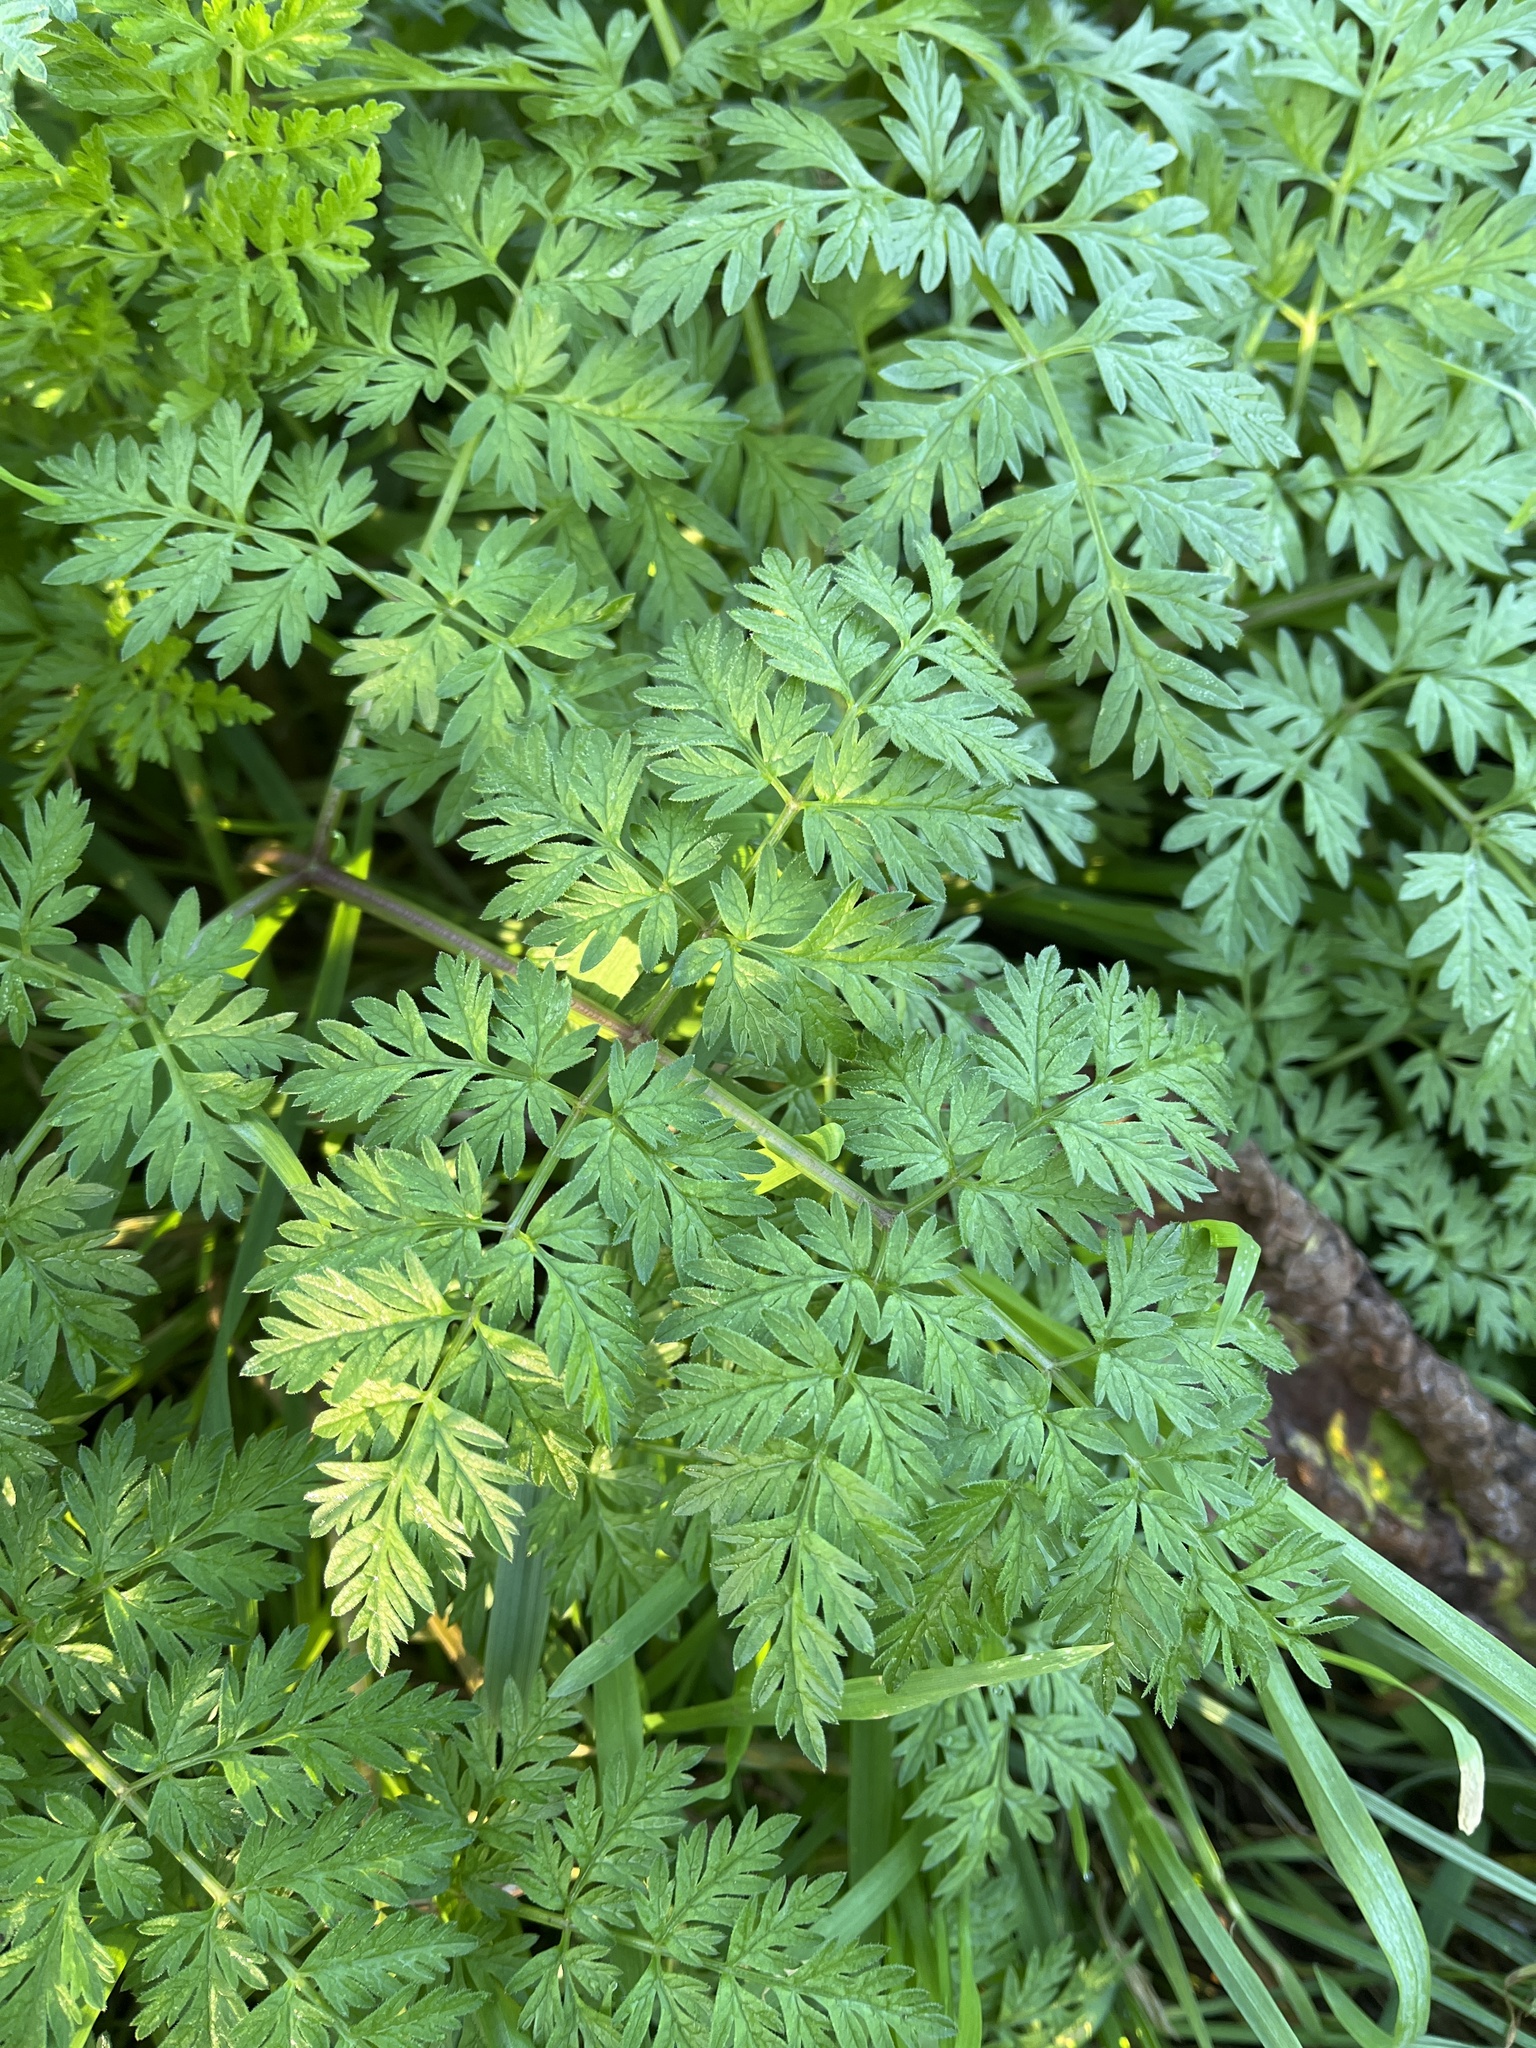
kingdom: Plantae
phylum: Tracheophyta
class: Magnoliopsida
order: Apiales
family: Apiaceae
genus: Anthriscus
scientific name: Anthriscus sylvestris
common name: Cow parsley
